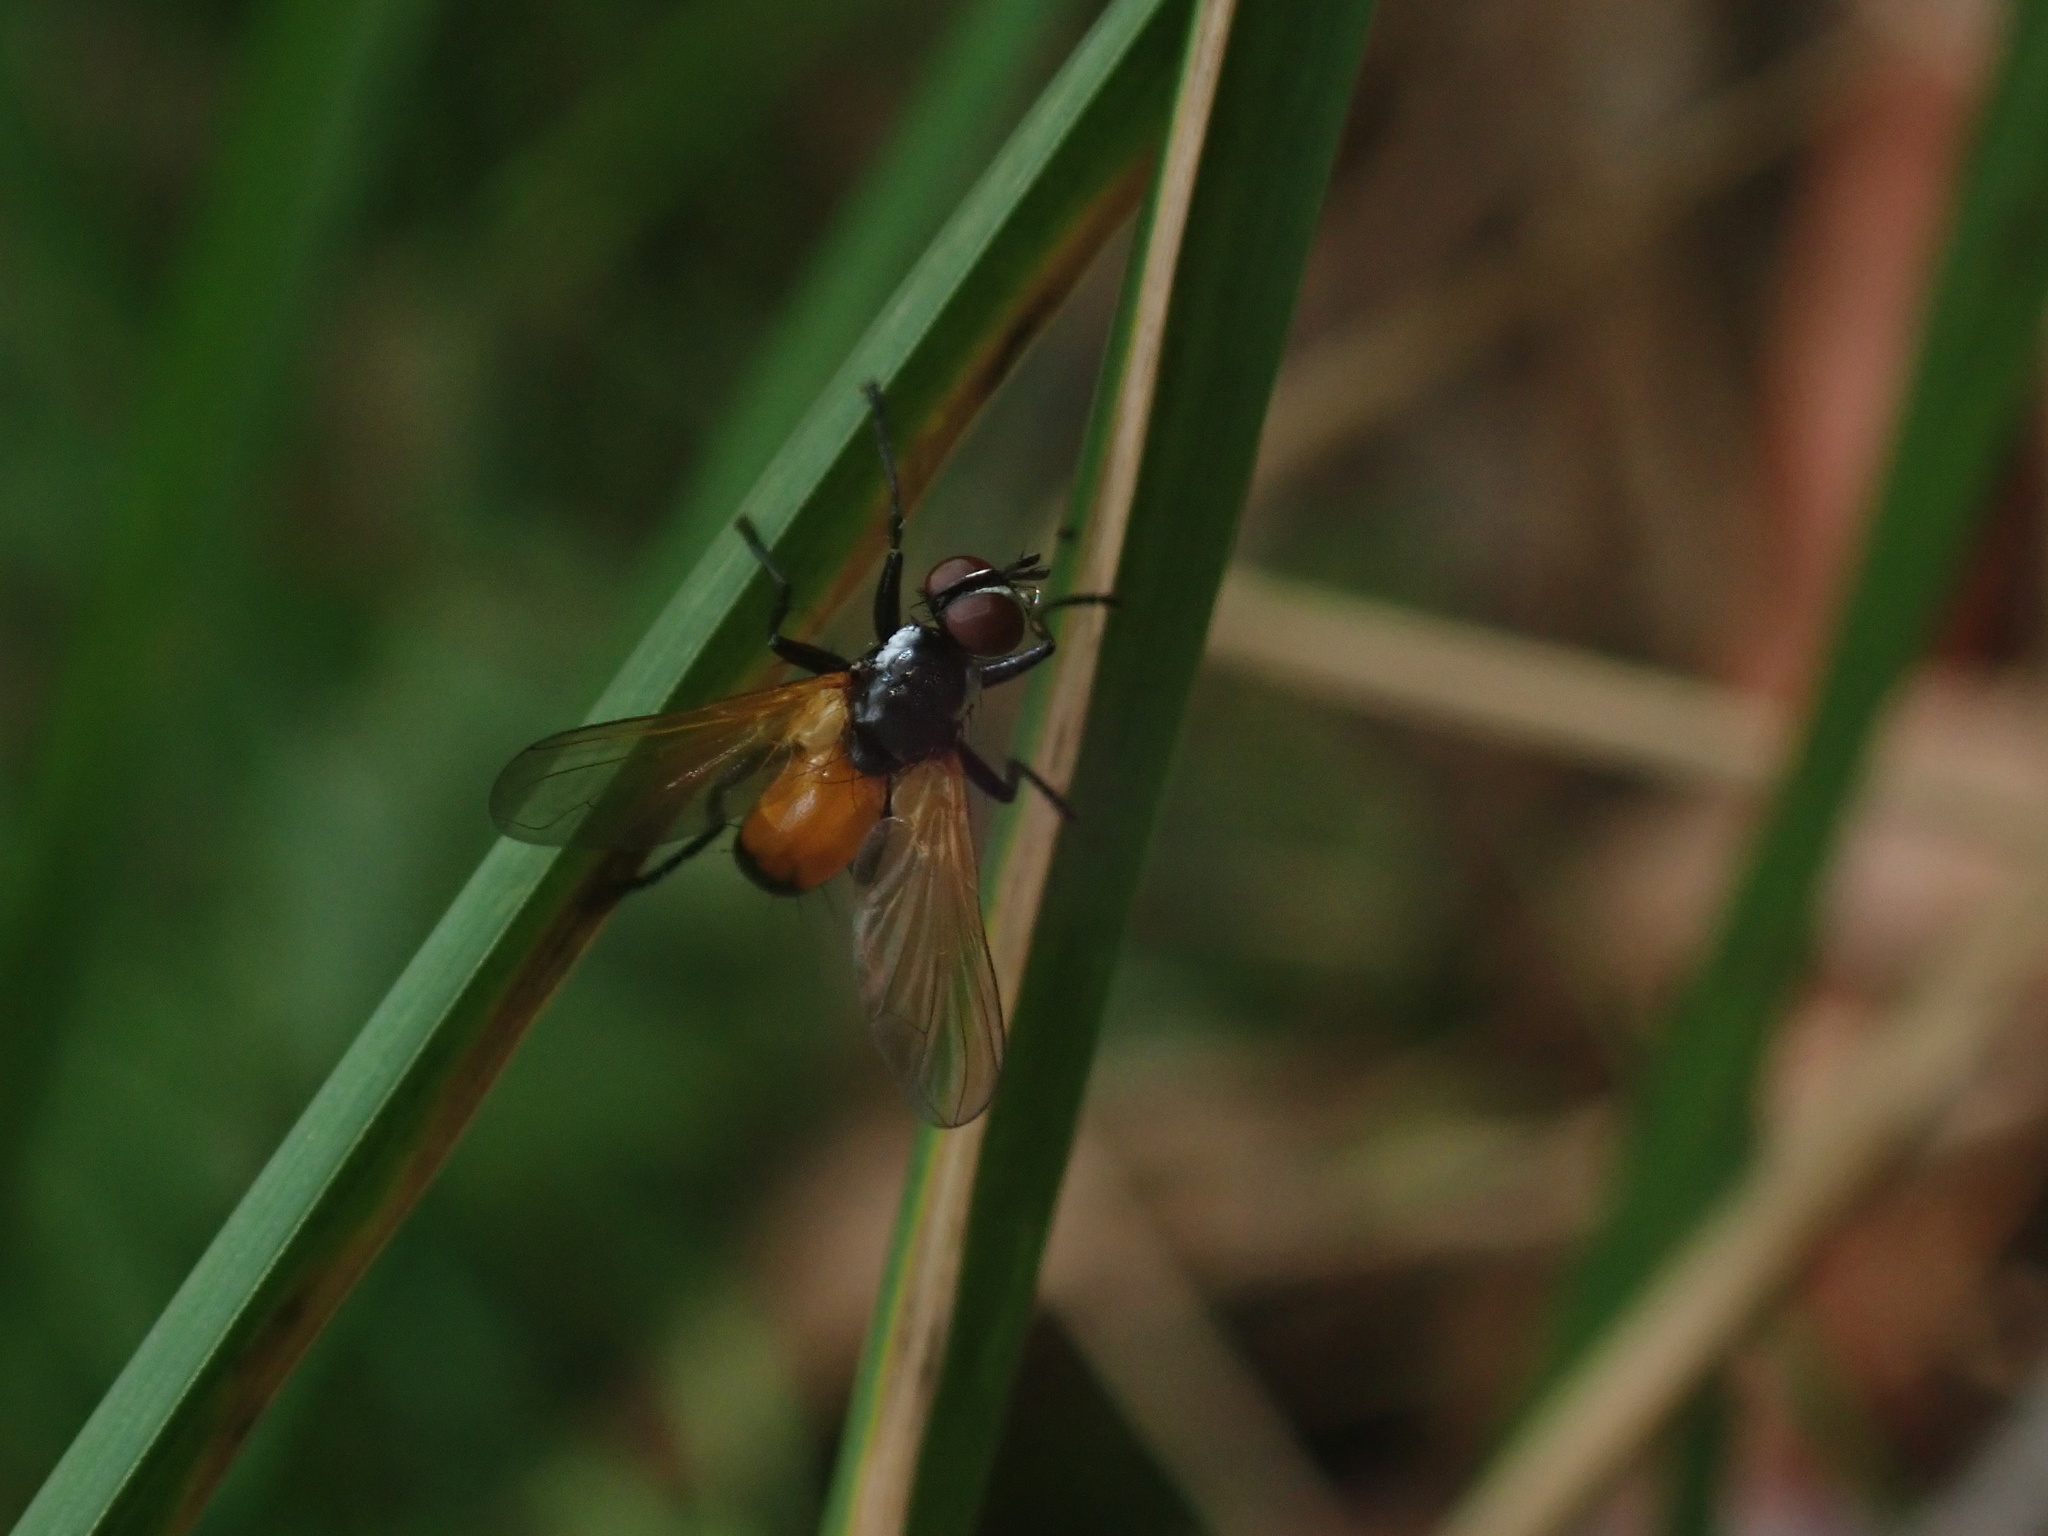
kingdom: Animalia
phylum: Arthropoda
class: Insecta
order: Diptera
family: Tachinidae
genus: Huttonobesseria
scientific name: Huttonobesseria verecunda
